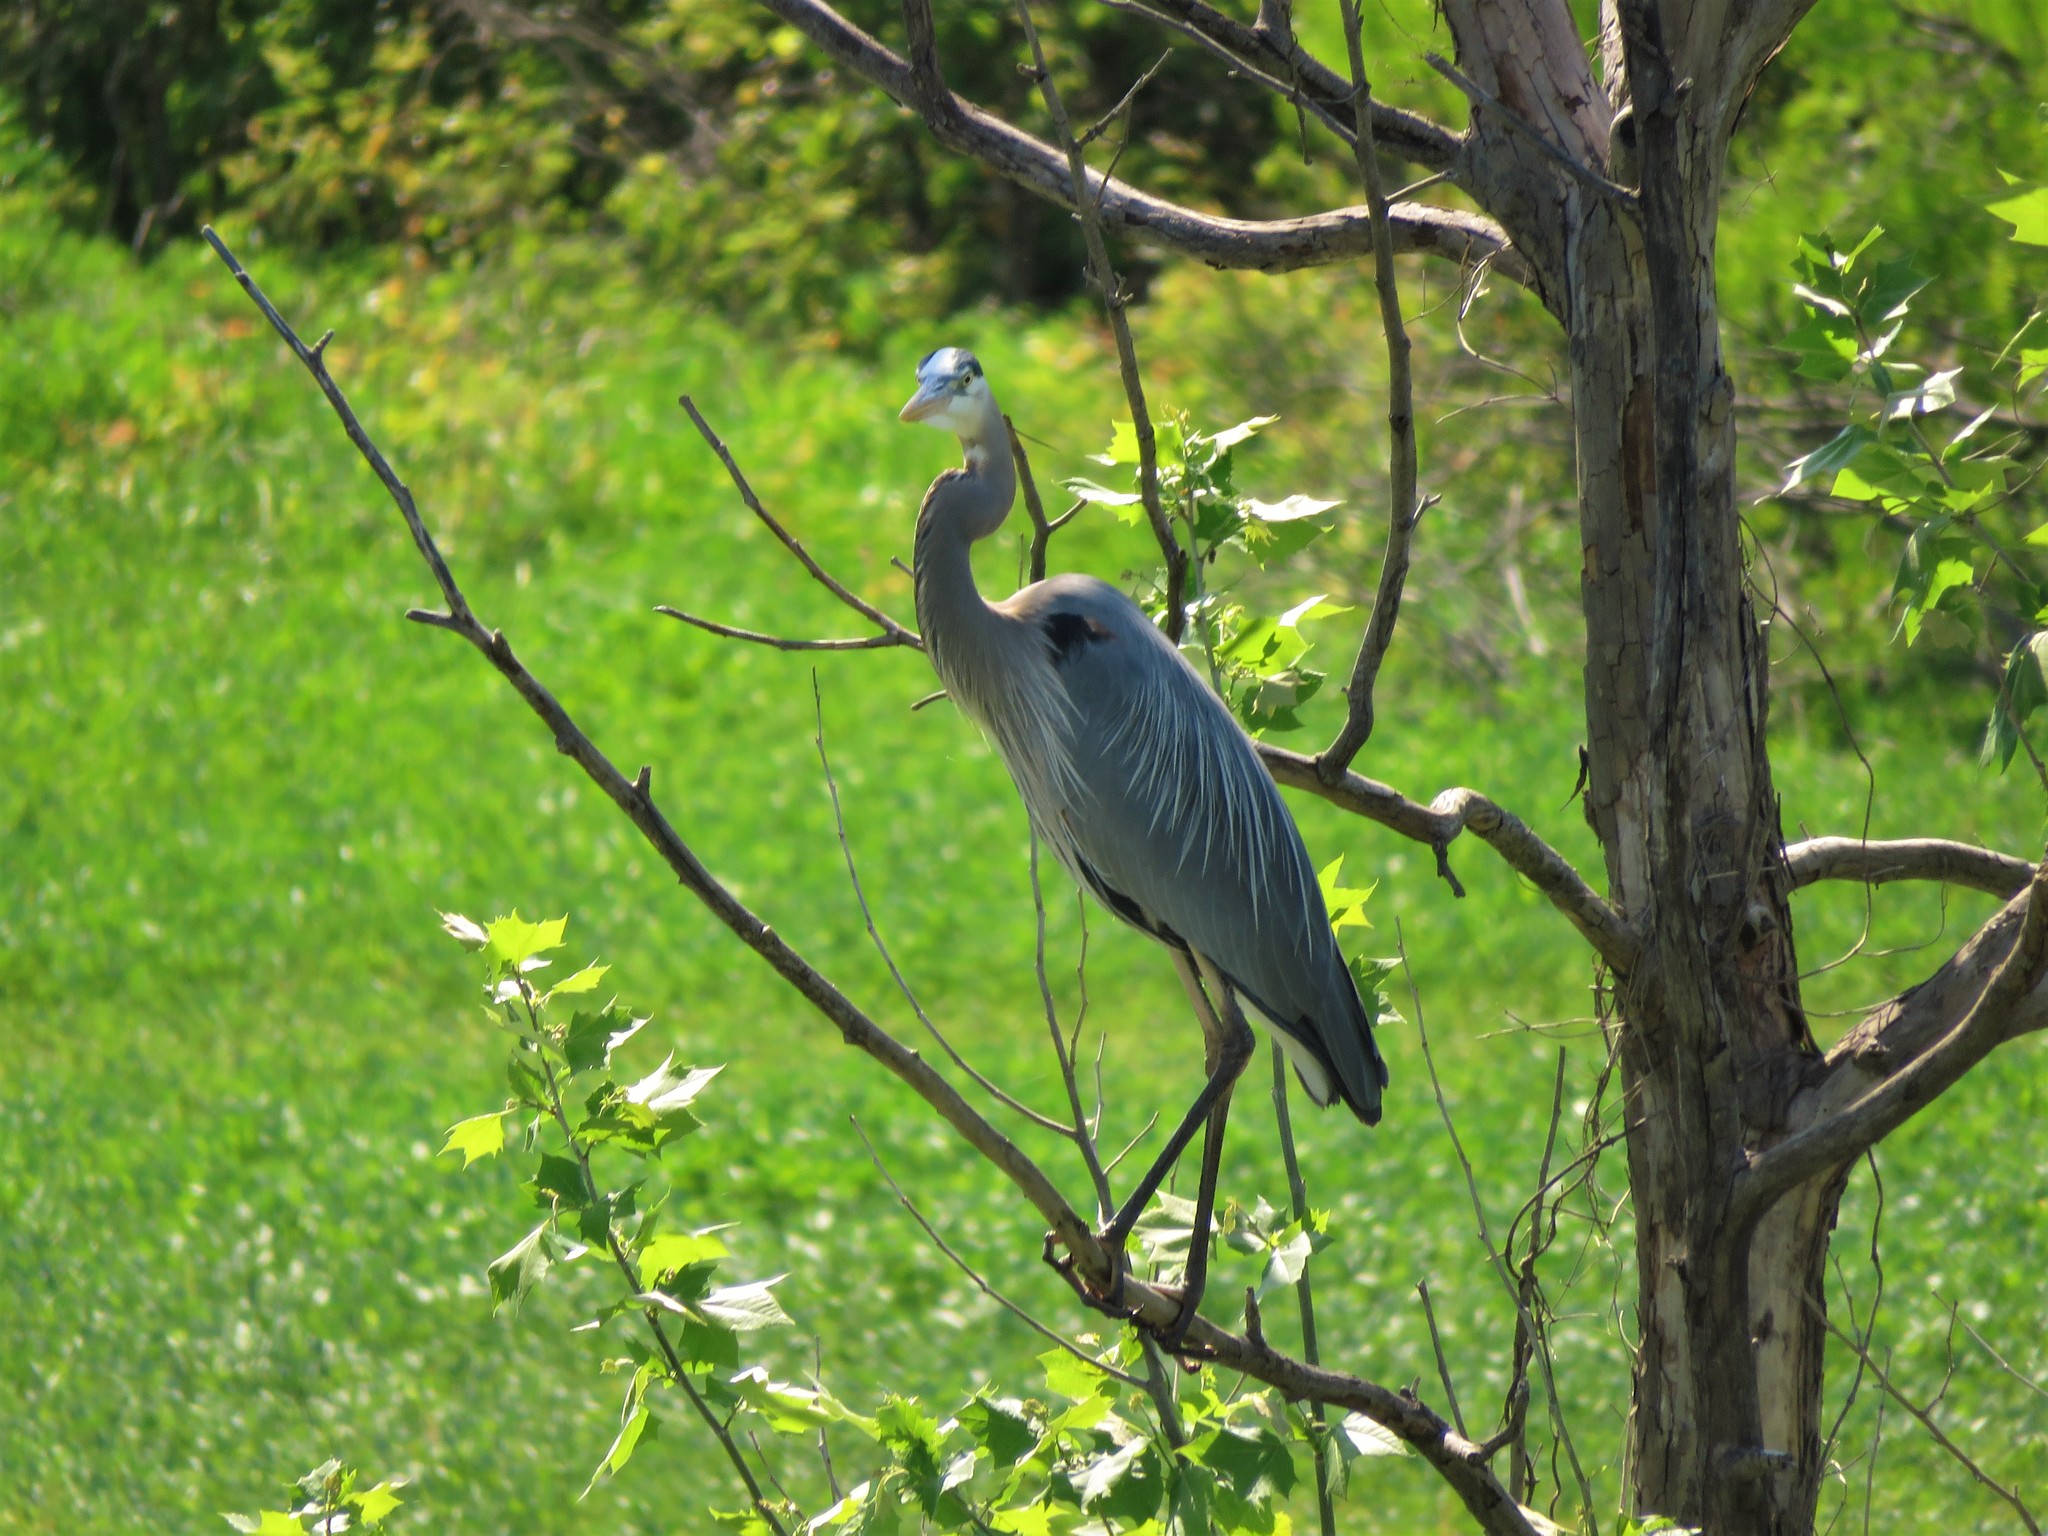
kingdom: Animalia
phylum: Chordata
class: Aves
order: Pelecaniformes
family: Ardeidae
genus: Ardea
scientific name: Ardea herodias
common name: Great blue heron
